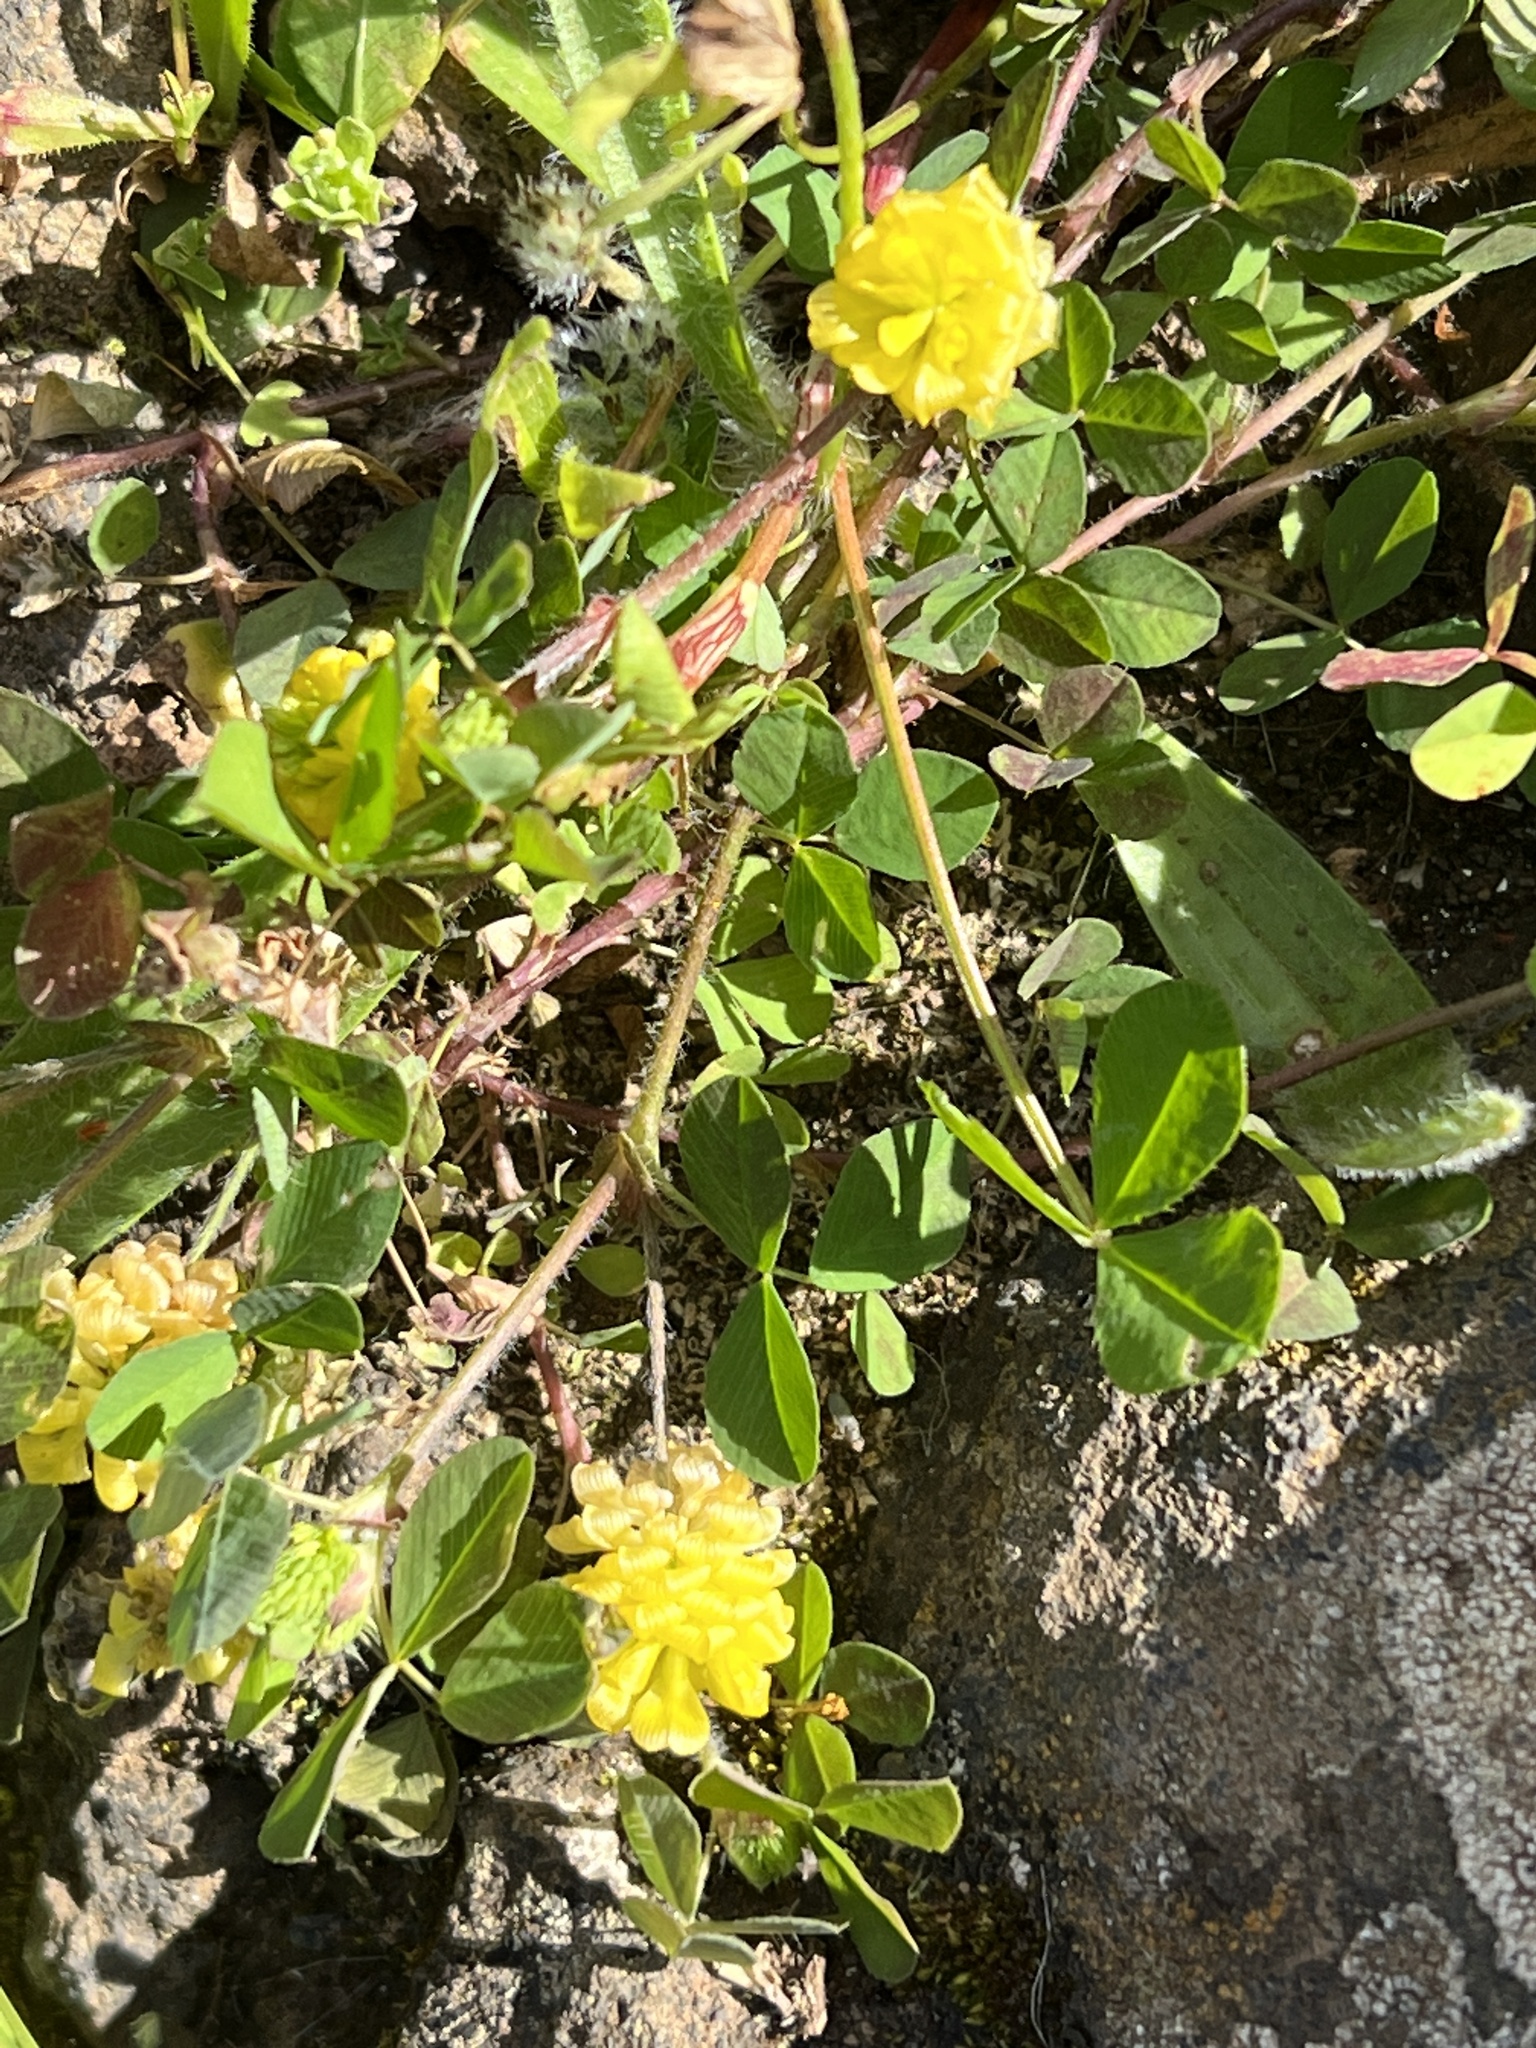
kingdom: Plantae
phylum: Tracheophyta
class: Magnoliopsida
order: Fabales
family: Fabaceae
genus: Trifolium
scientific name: Trifolium campestre
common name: Field clover
